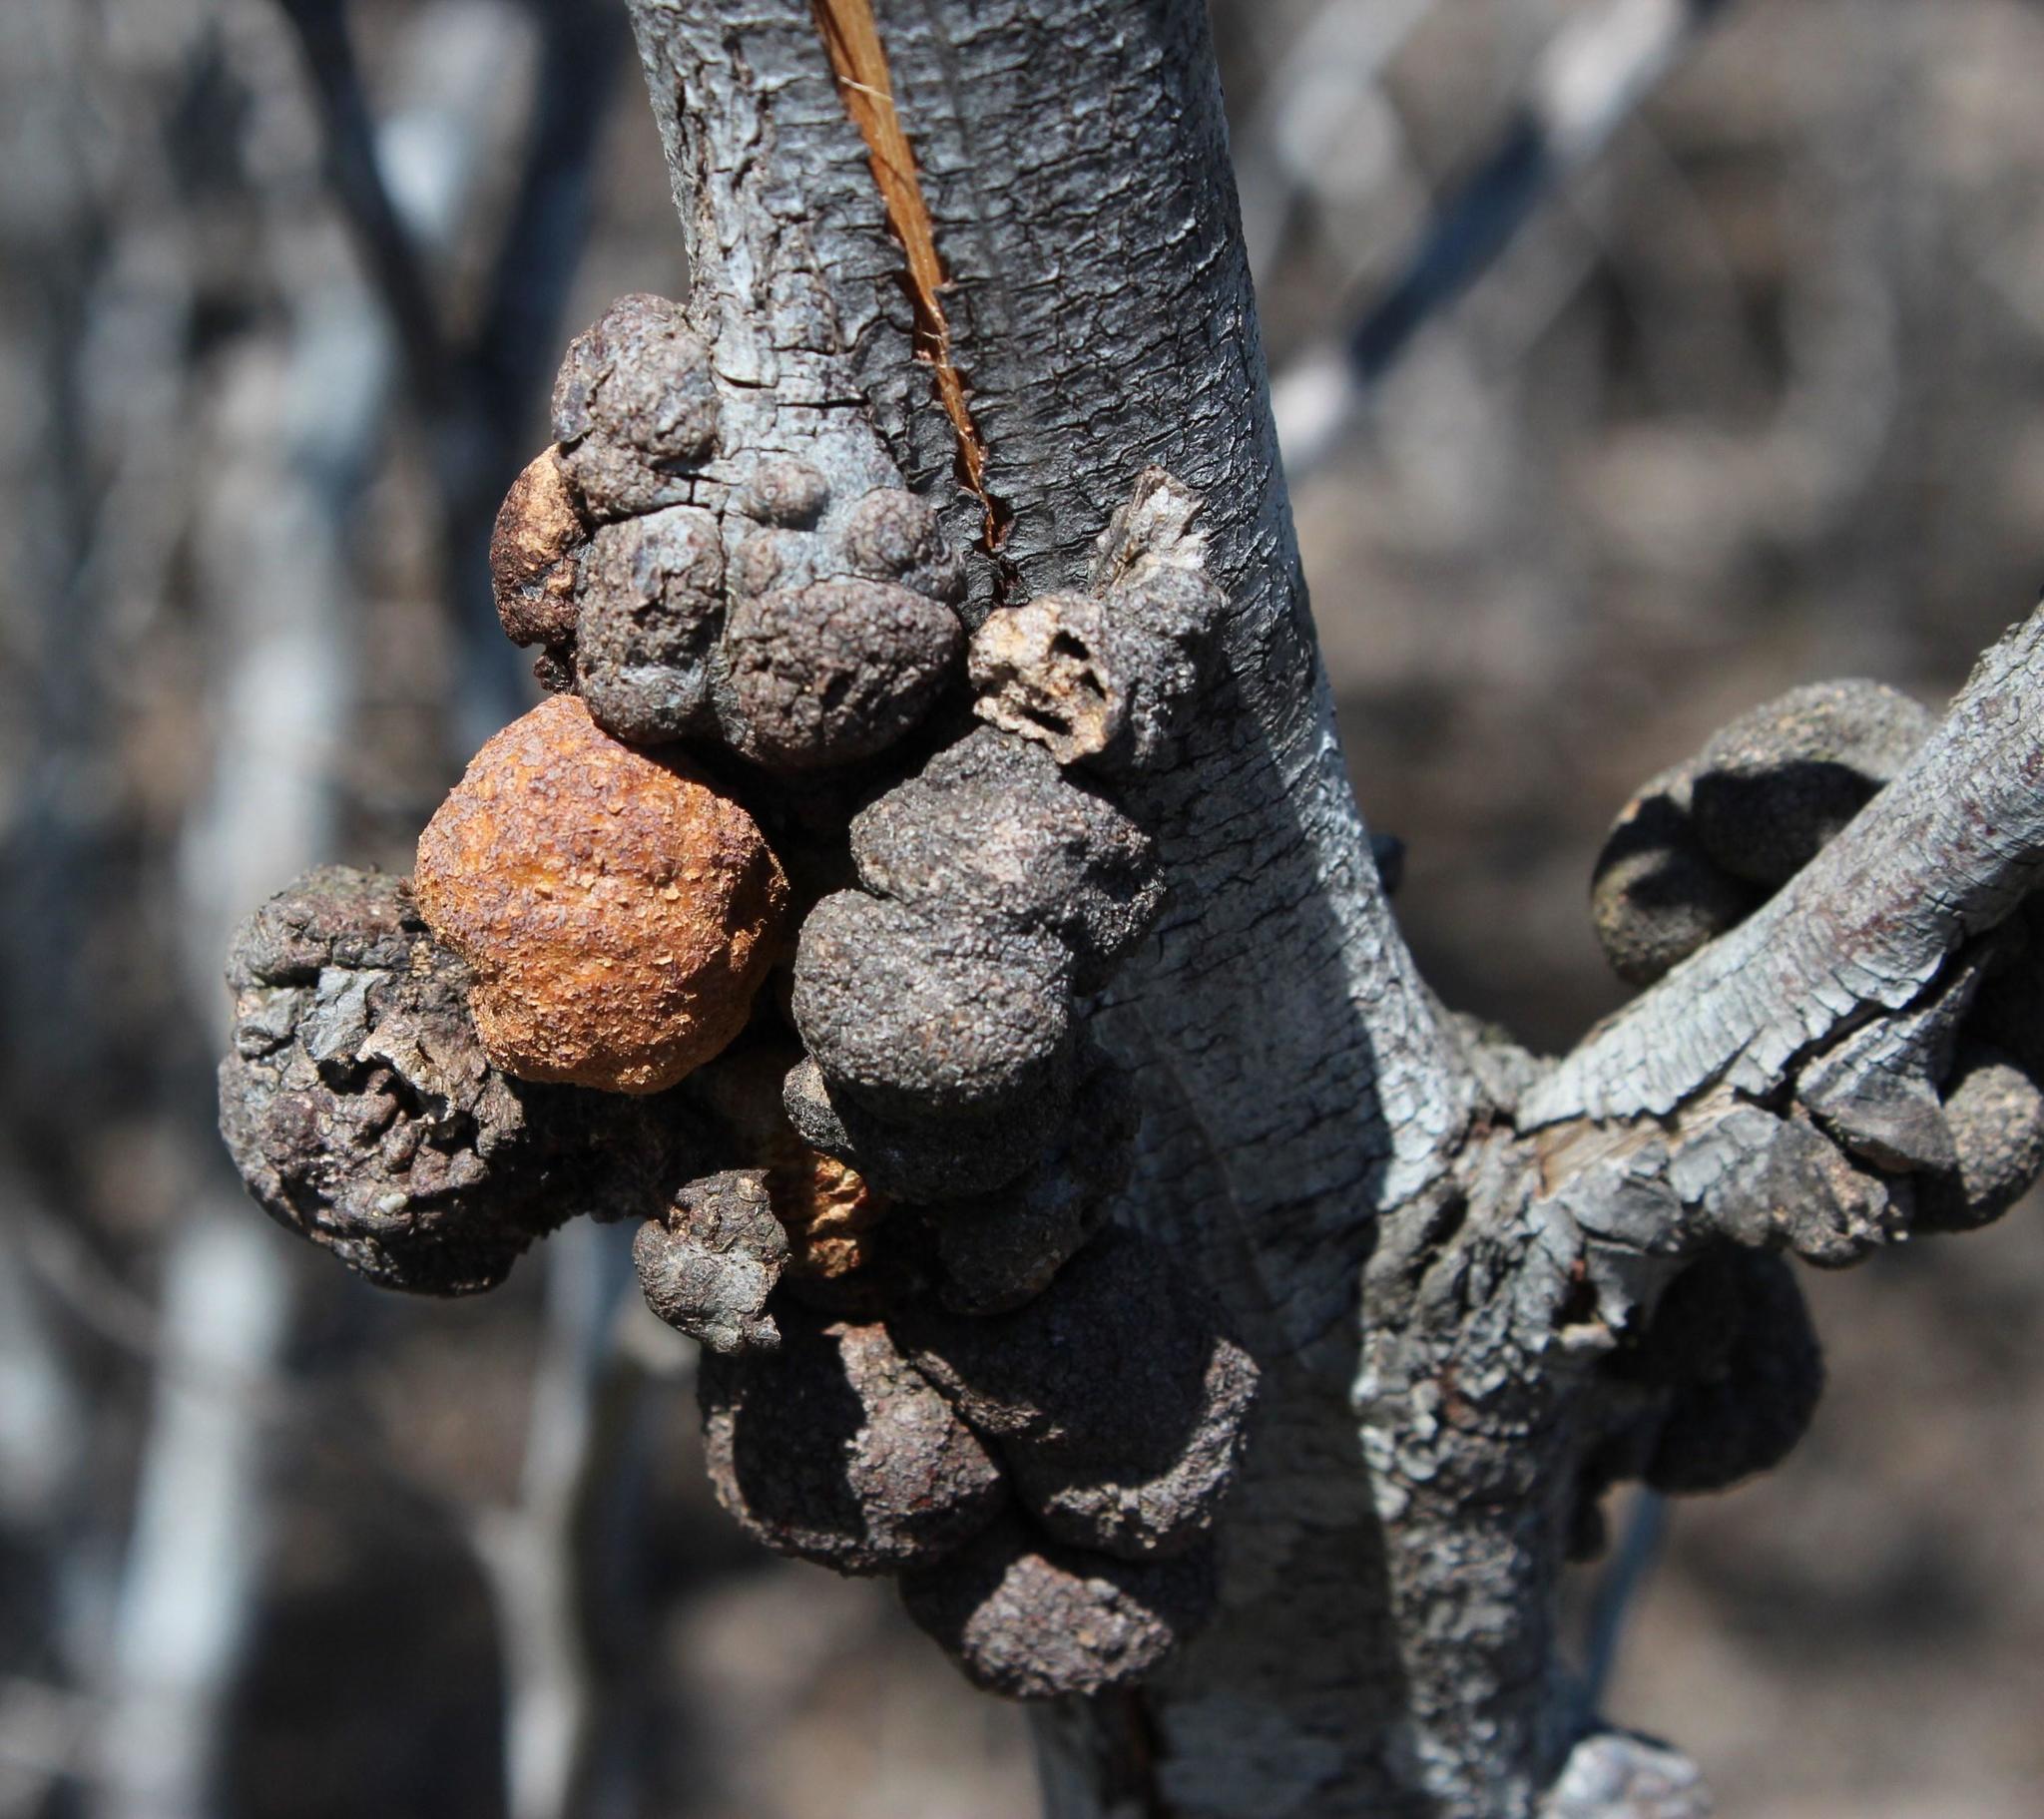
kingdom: Fungi
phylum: Basidiomycota
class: Pucciniomycetes
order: Pucciniales
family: Uromycladiaceae
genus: Uromycladium
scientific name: Uromycladium morrisii
